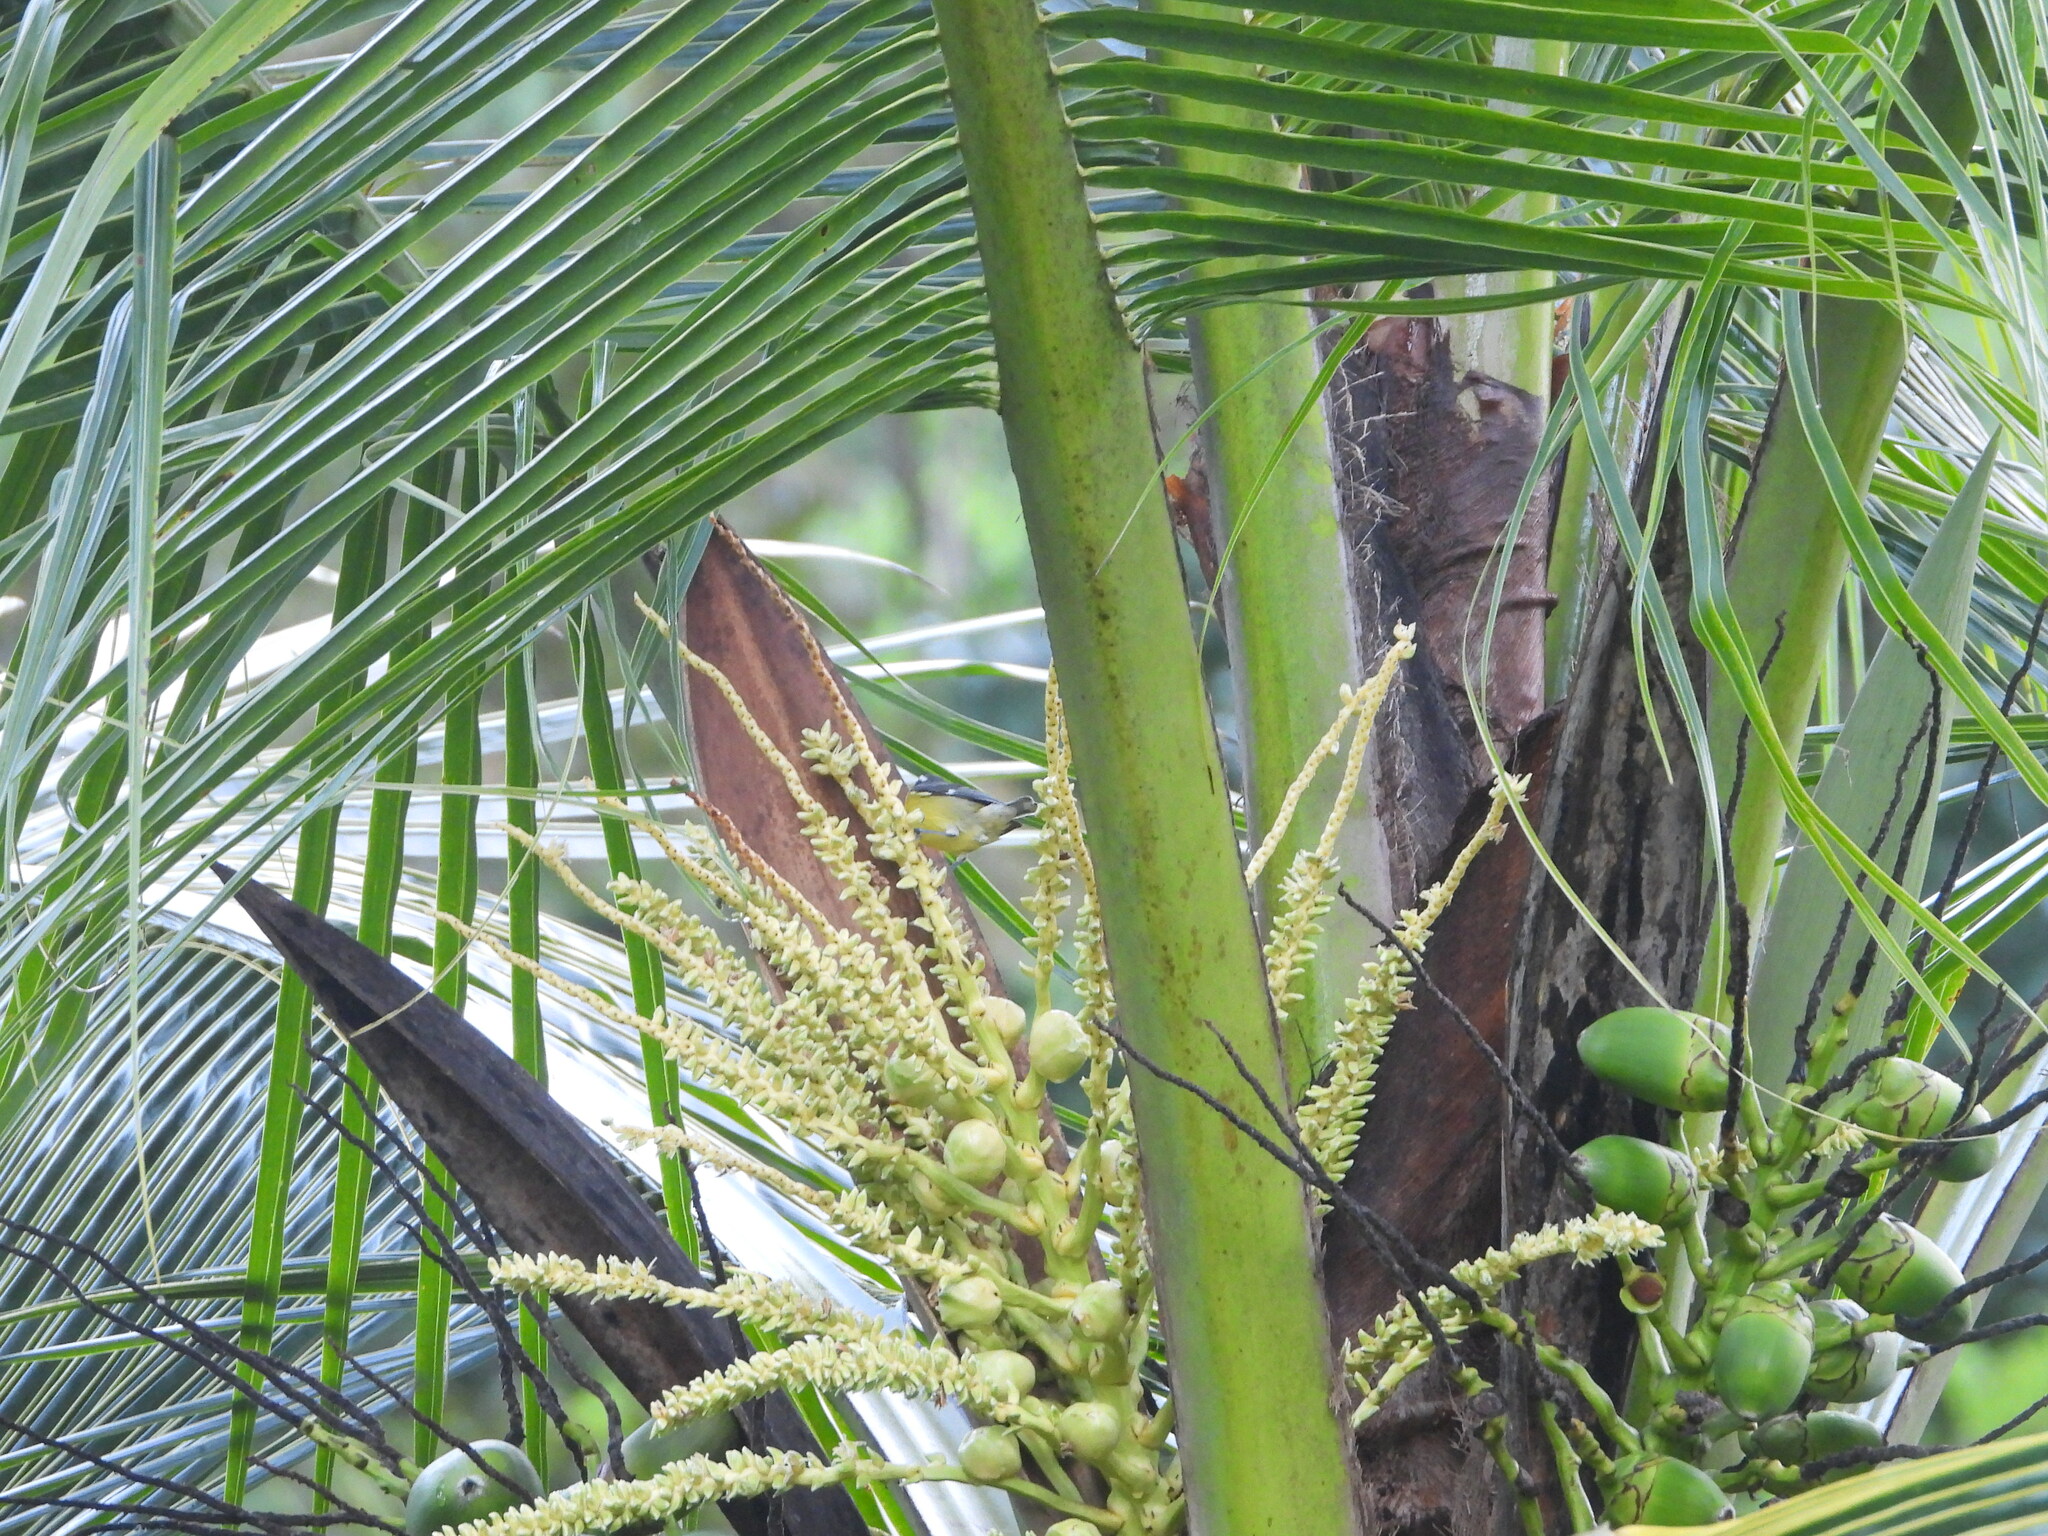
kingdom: Animalia
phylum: Chordata
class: Aves
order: Passeriformes
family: Thraupidae
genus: Coereba
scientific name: Coereba flaveola
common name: Bananaquit
